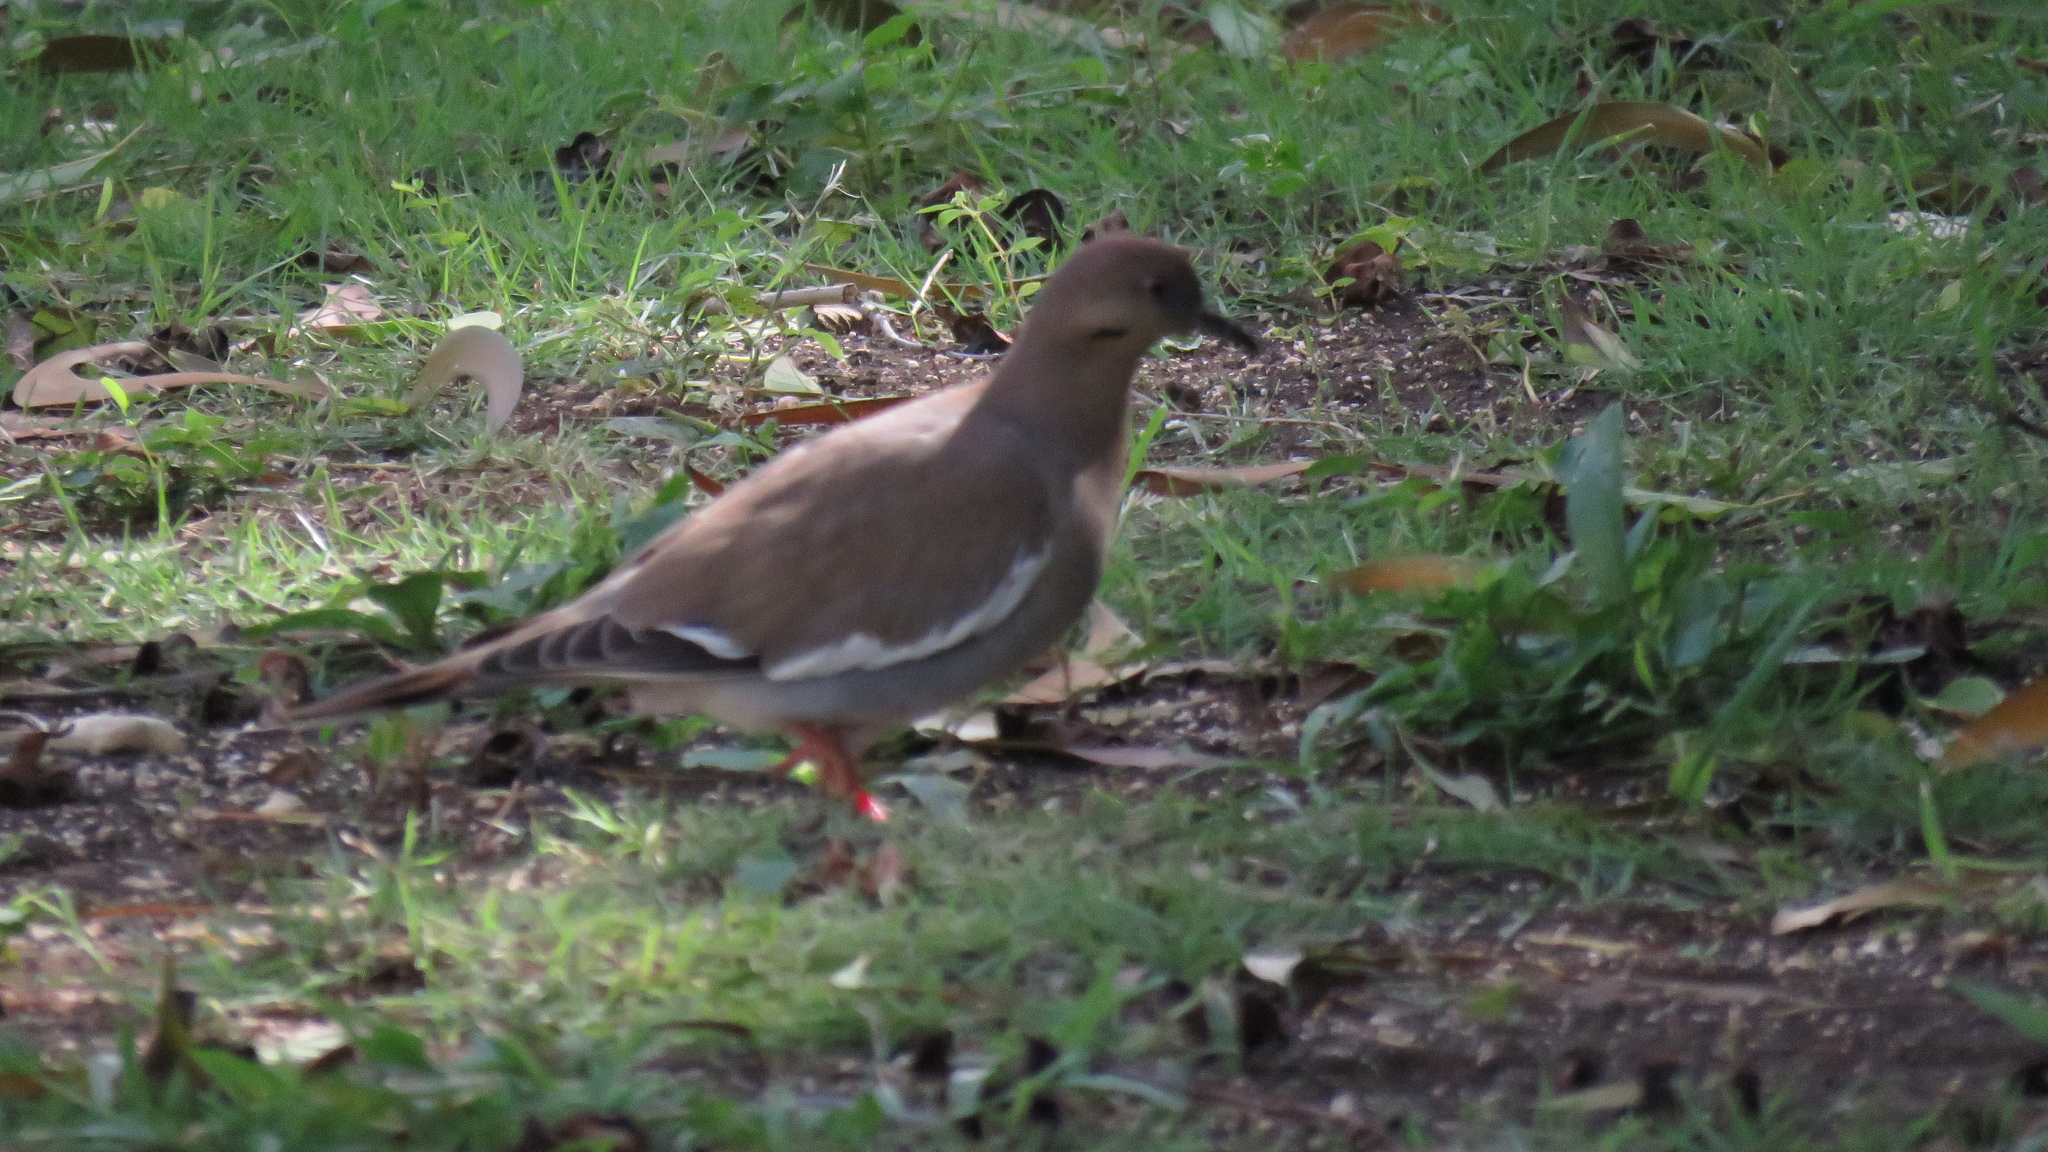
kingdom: Animalia
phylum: Chordata
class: Aves
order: Columbiformes
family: Columbidae
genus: Zenaida
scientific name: Zenaida asiatica
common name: White-winged dove
